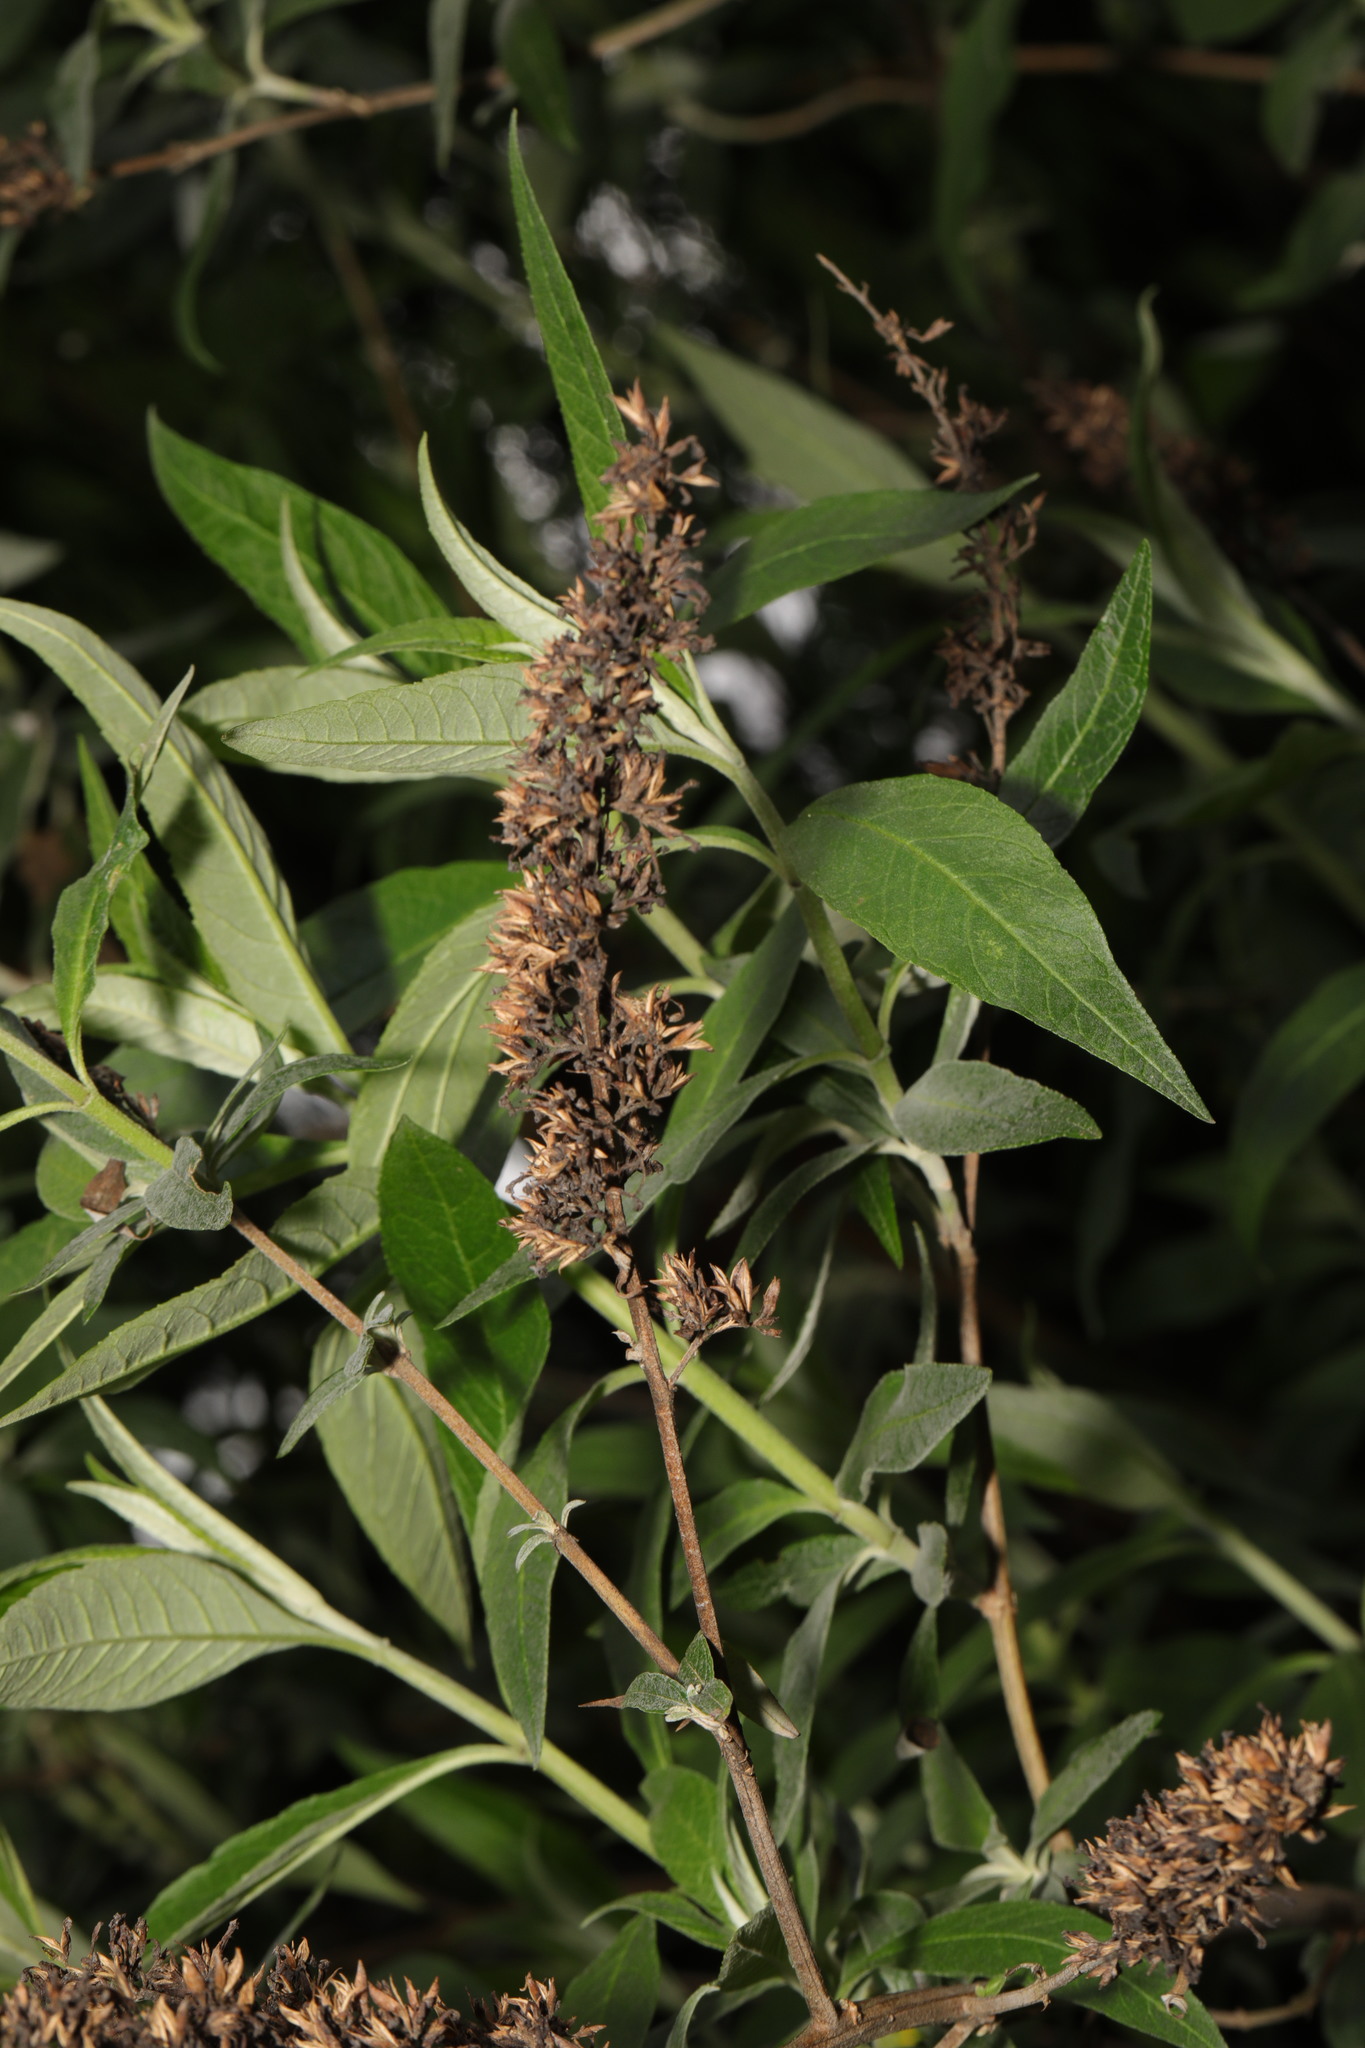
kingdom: Plantae
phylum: Tracheophyta
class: Magnoliopsida
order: Lamiales
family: Scrophulariaceae
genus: Buddleja
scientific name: Buddleja davidii
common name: Butterfly-bush
